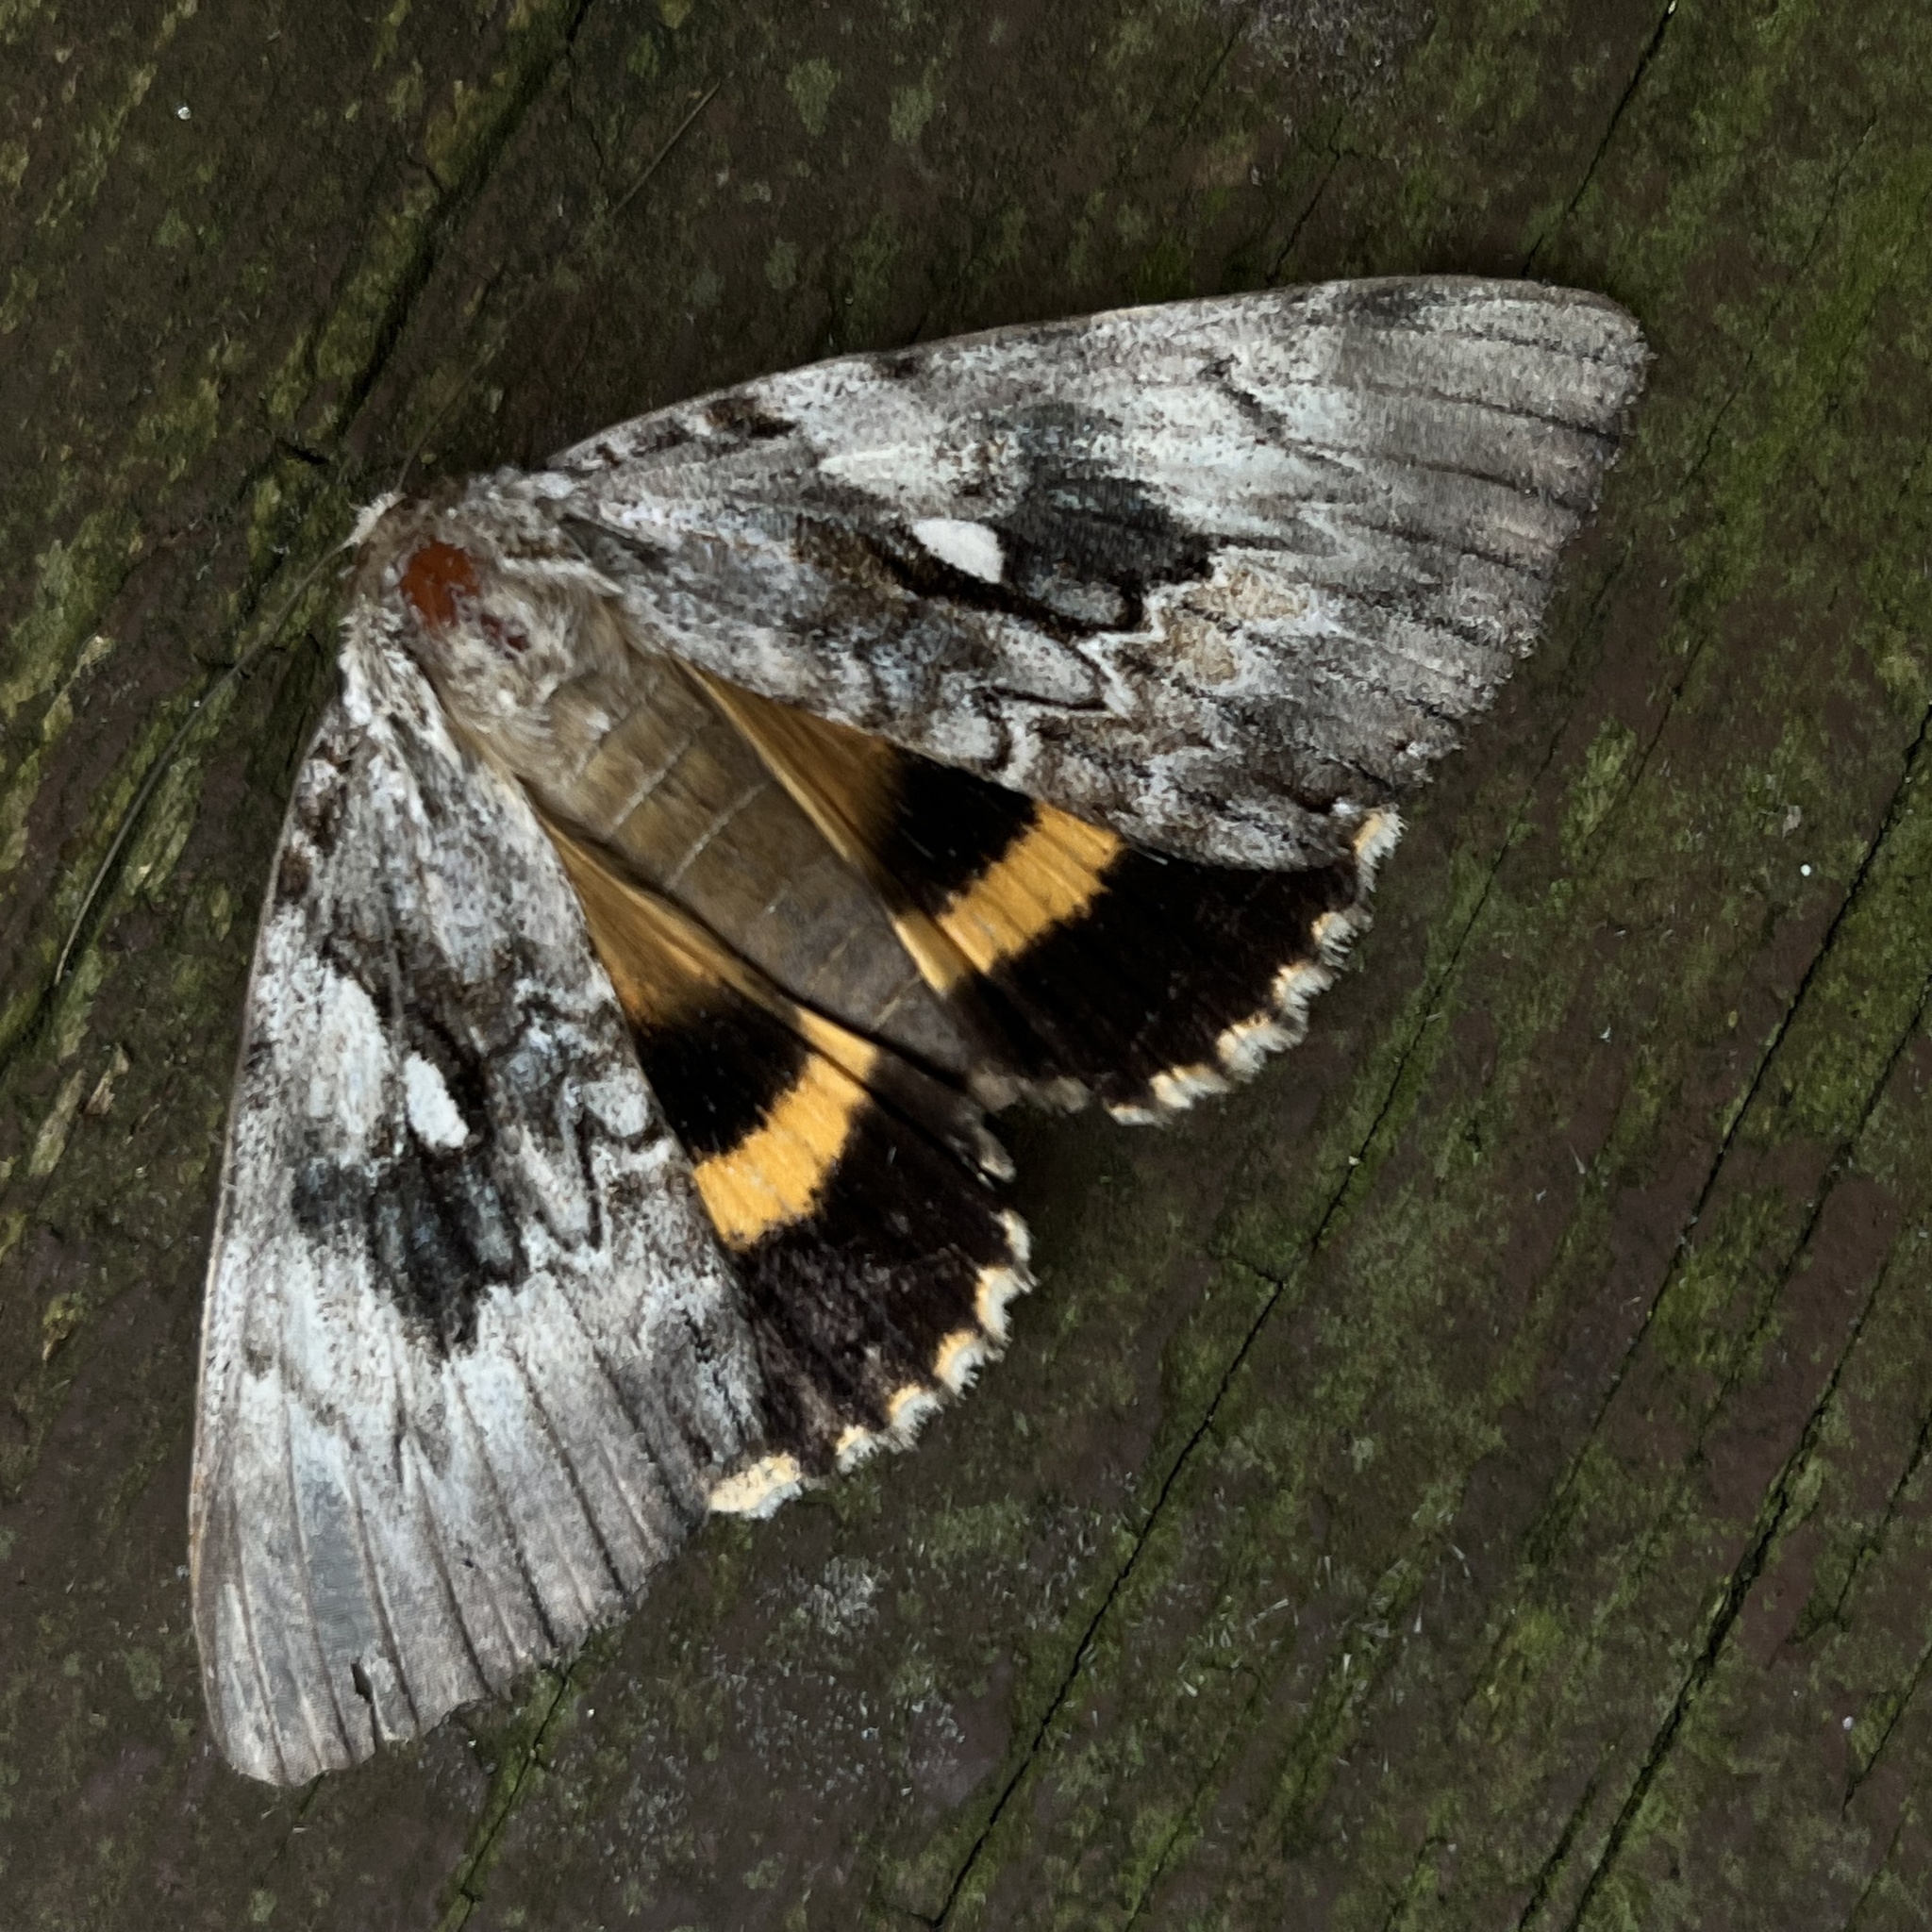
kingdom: Animalia
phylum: Arthropoda
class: Insecta
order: Lepidoptera
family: Erebidae
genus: Catocala
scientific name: Catocala cerogama
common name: Yellow banded underwing
